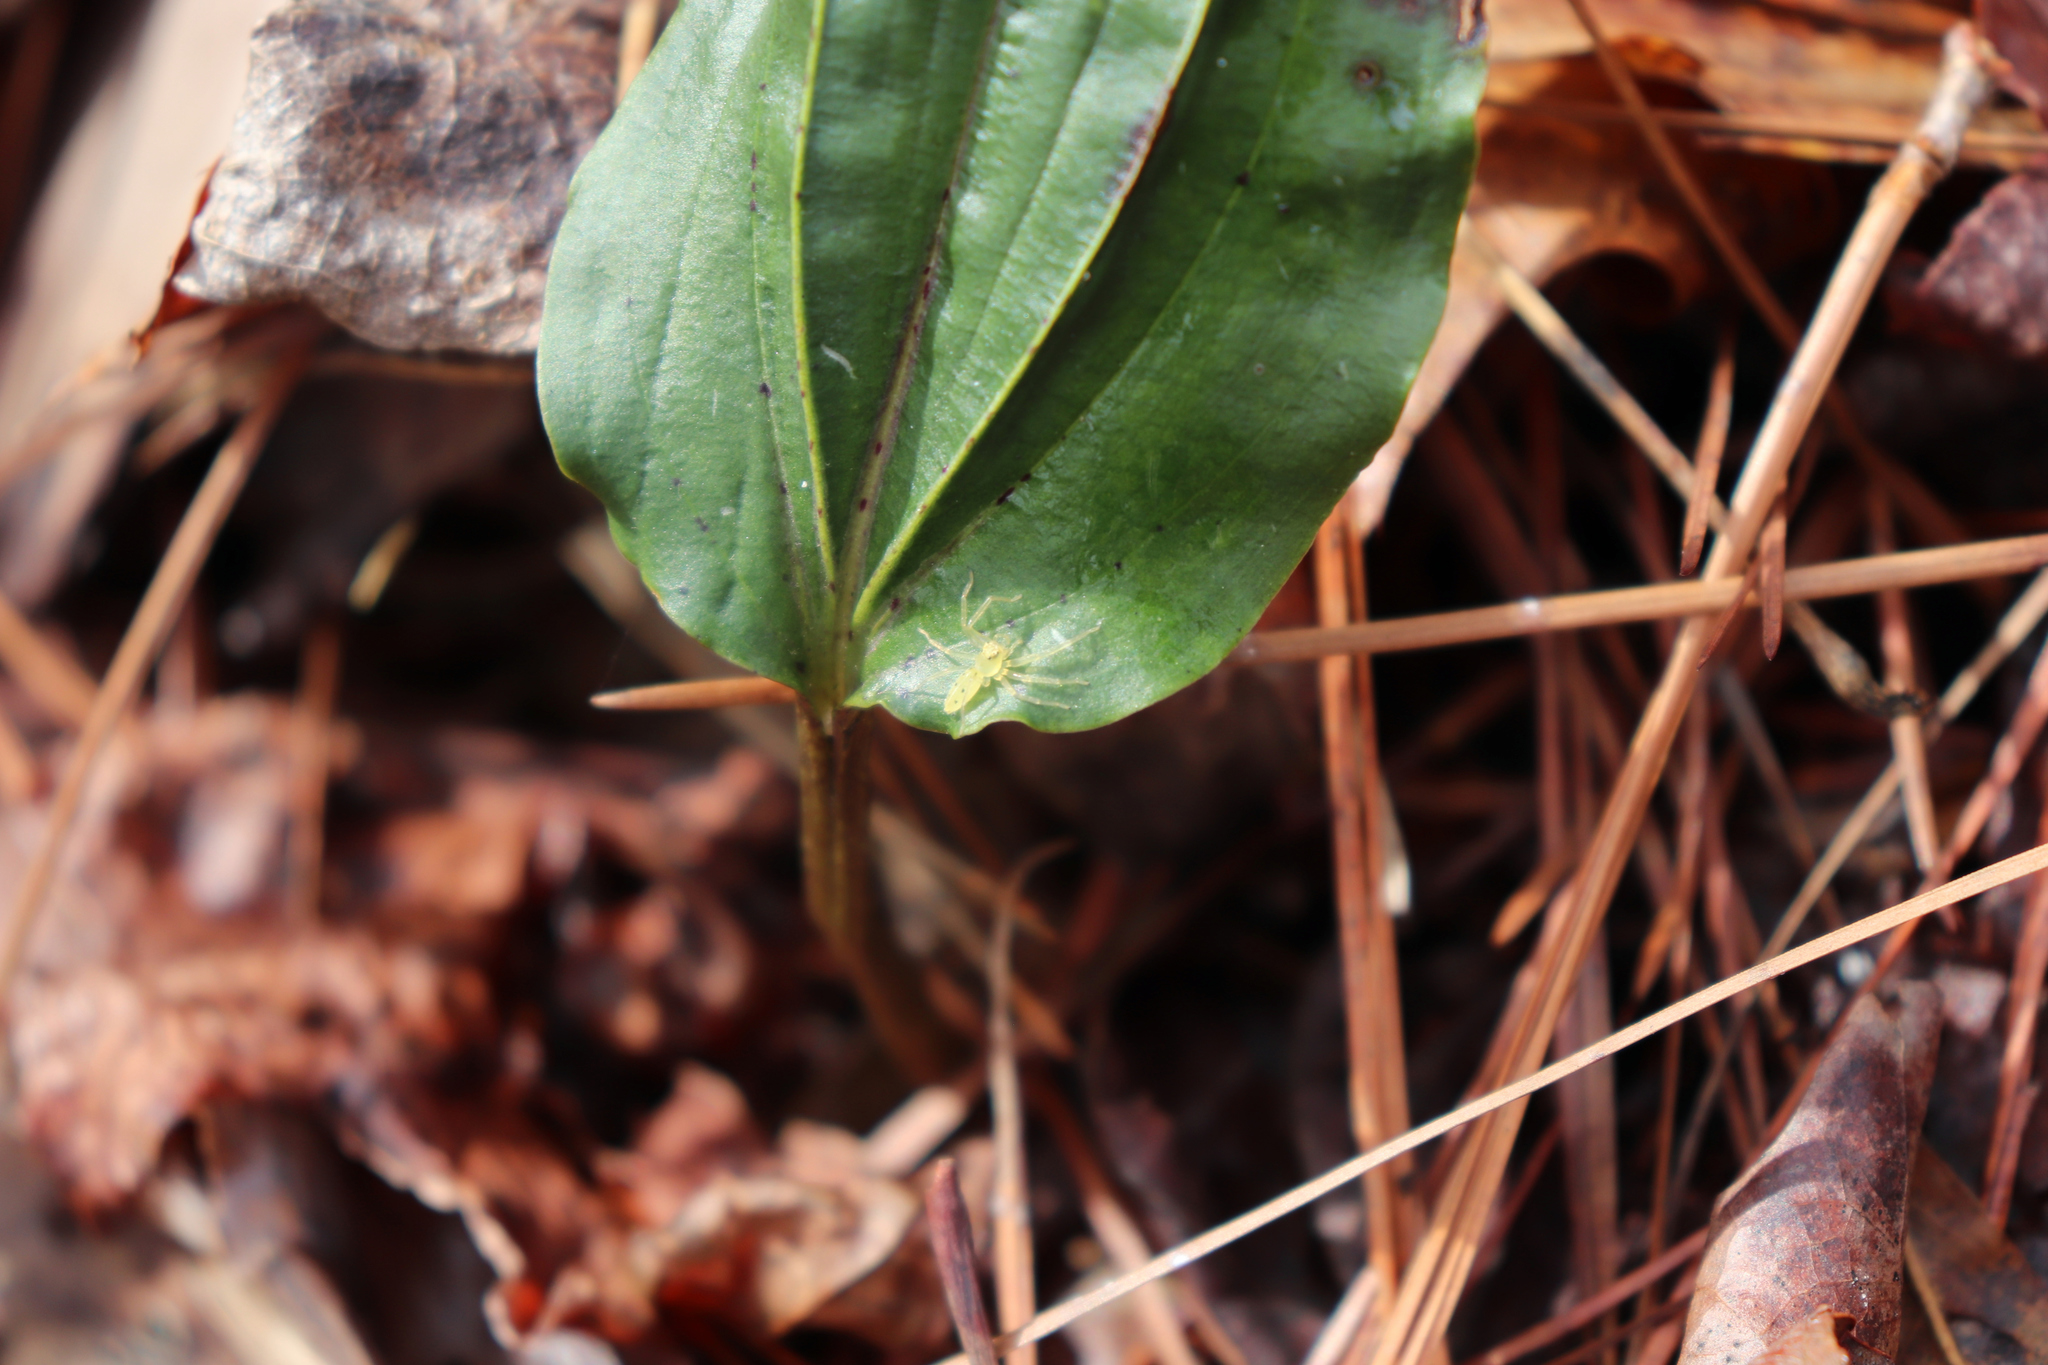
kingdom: Animalia
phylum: Arthropoda
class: Arachnida
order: Araneae
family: Salticidae
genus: Lyssomanes
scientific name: Lyssomanes viridis
